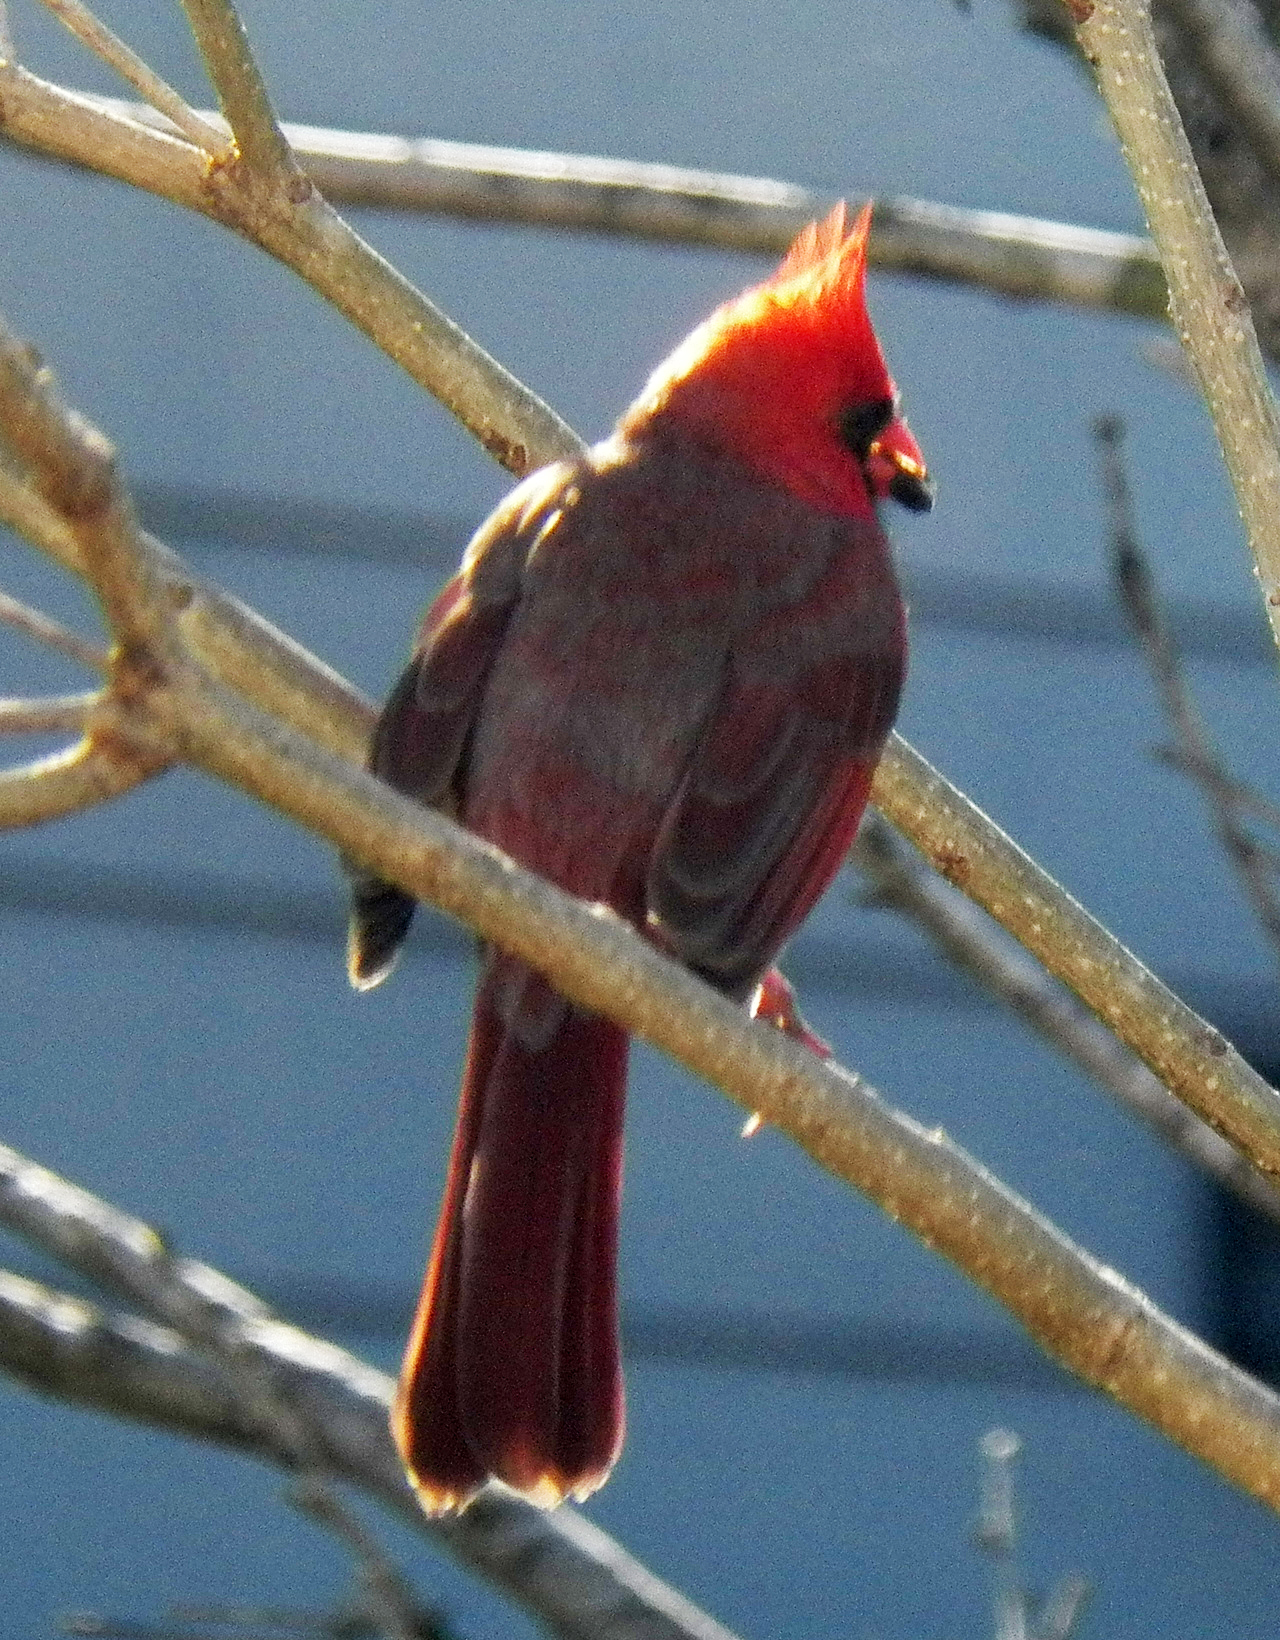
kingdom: Animalia
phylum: Chordata
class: Aves
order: Passeriformes
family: Cardinalidae
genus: Cardinalis
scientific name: Cardinalis cardinalis
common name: Northern cardinal
